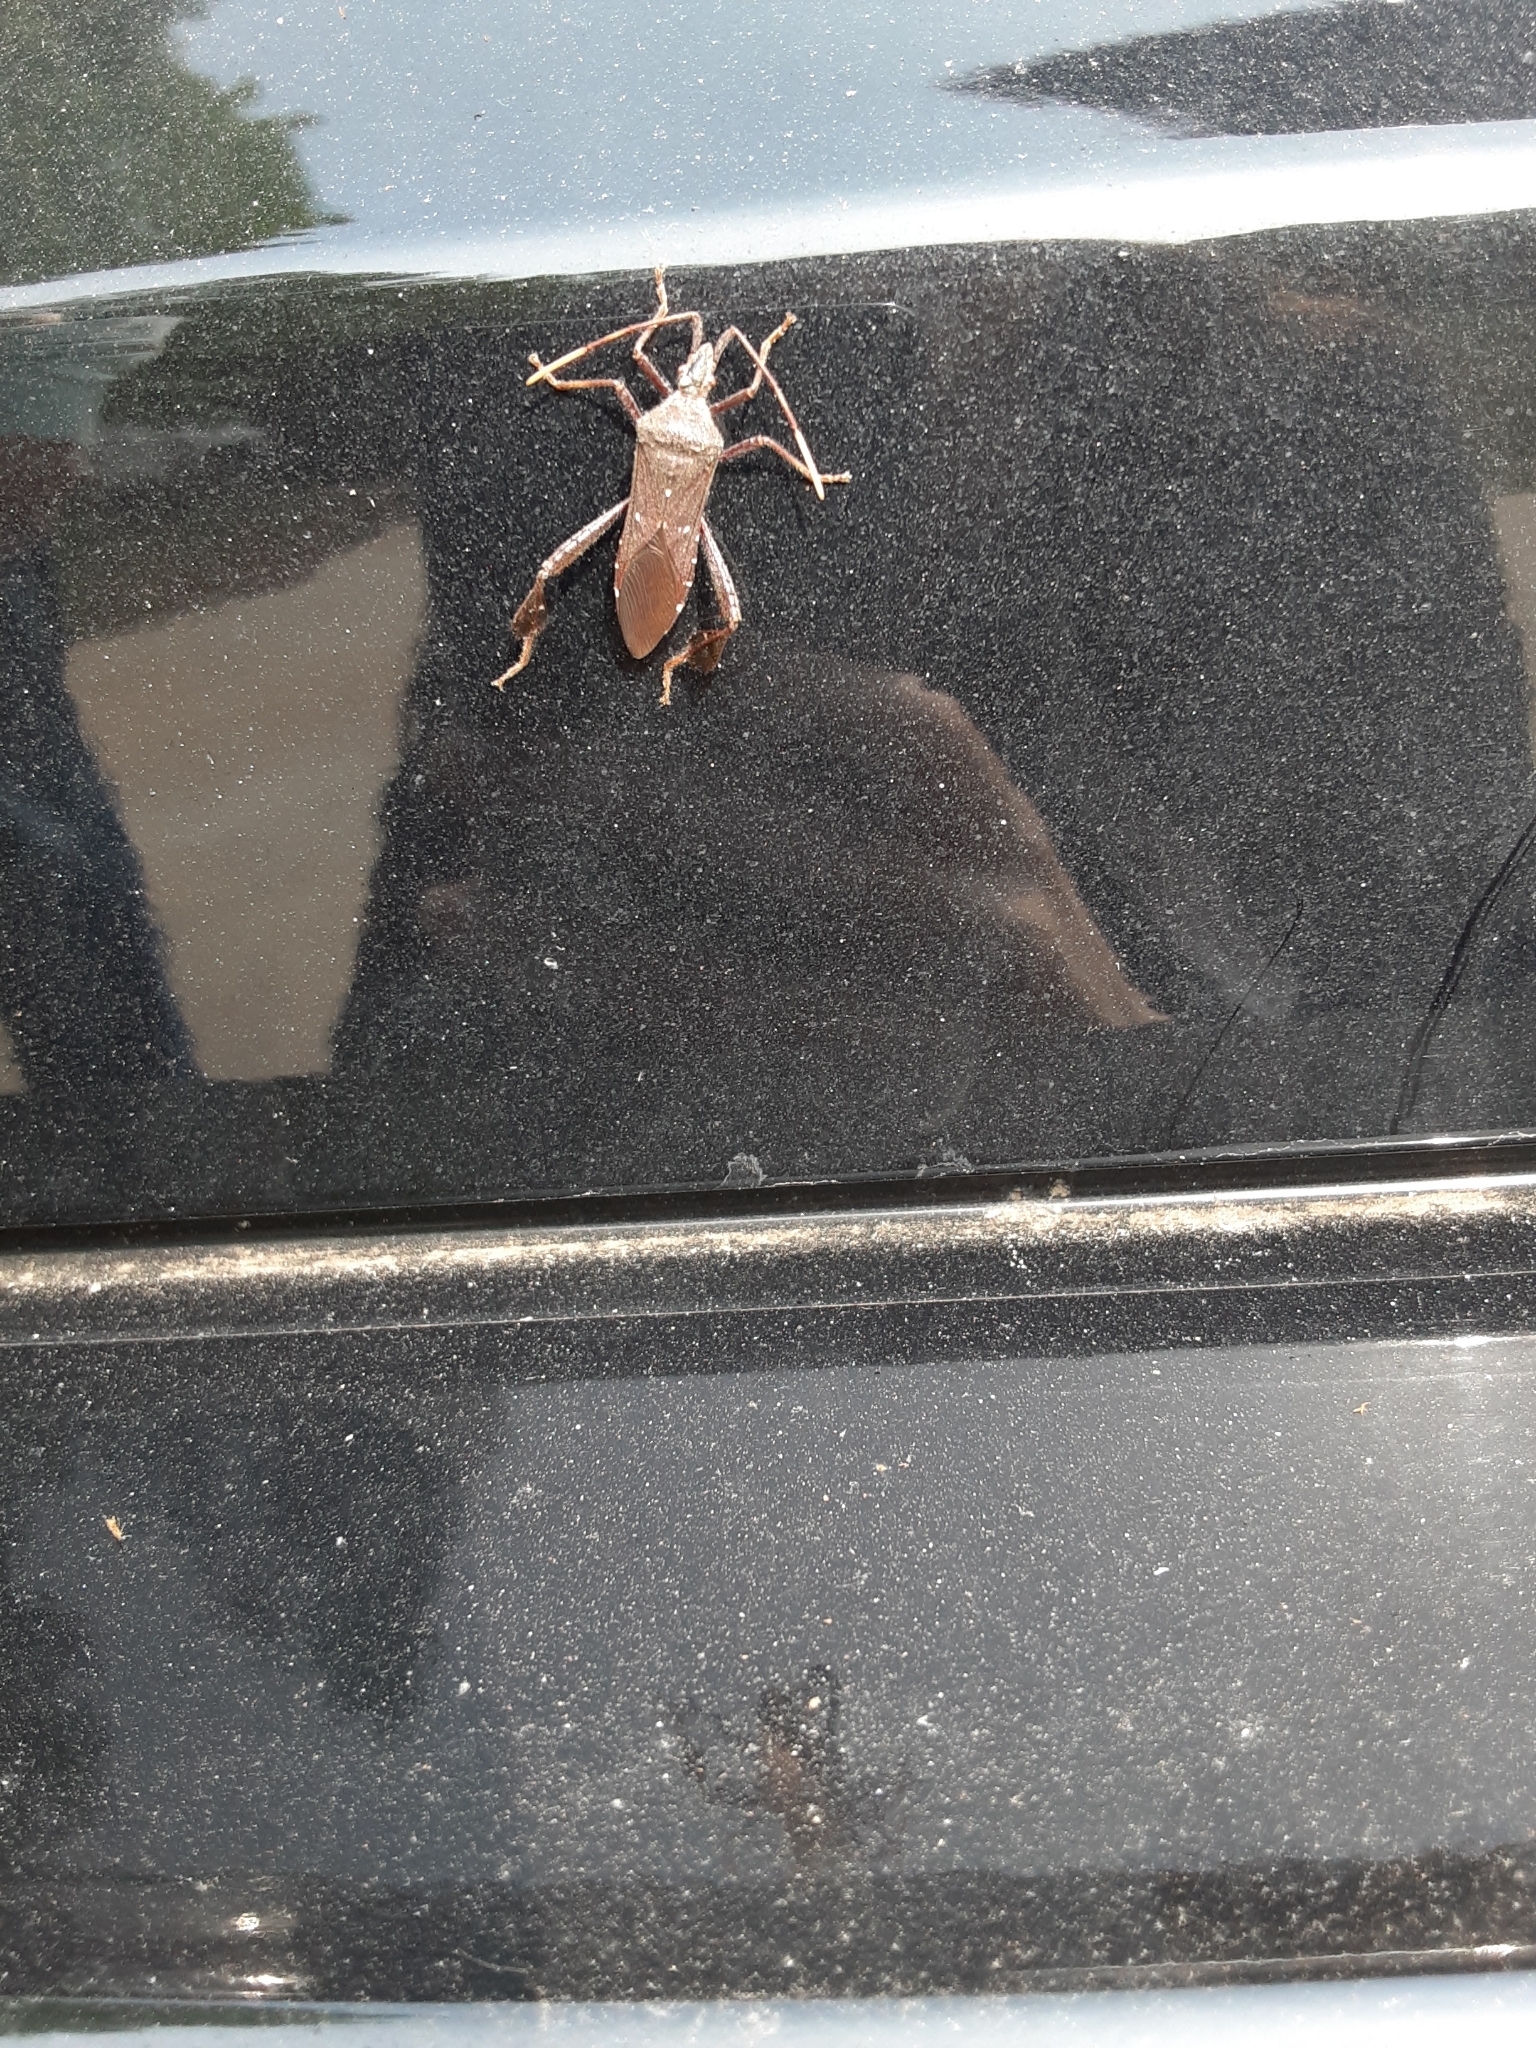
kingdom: Animalia
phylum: Arthropoda
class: Insecta
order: Hemiptera
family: Coreidae
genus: Leptoglossus
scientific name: Leptoglossus oppositus
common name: Northern leaf-footed bug
